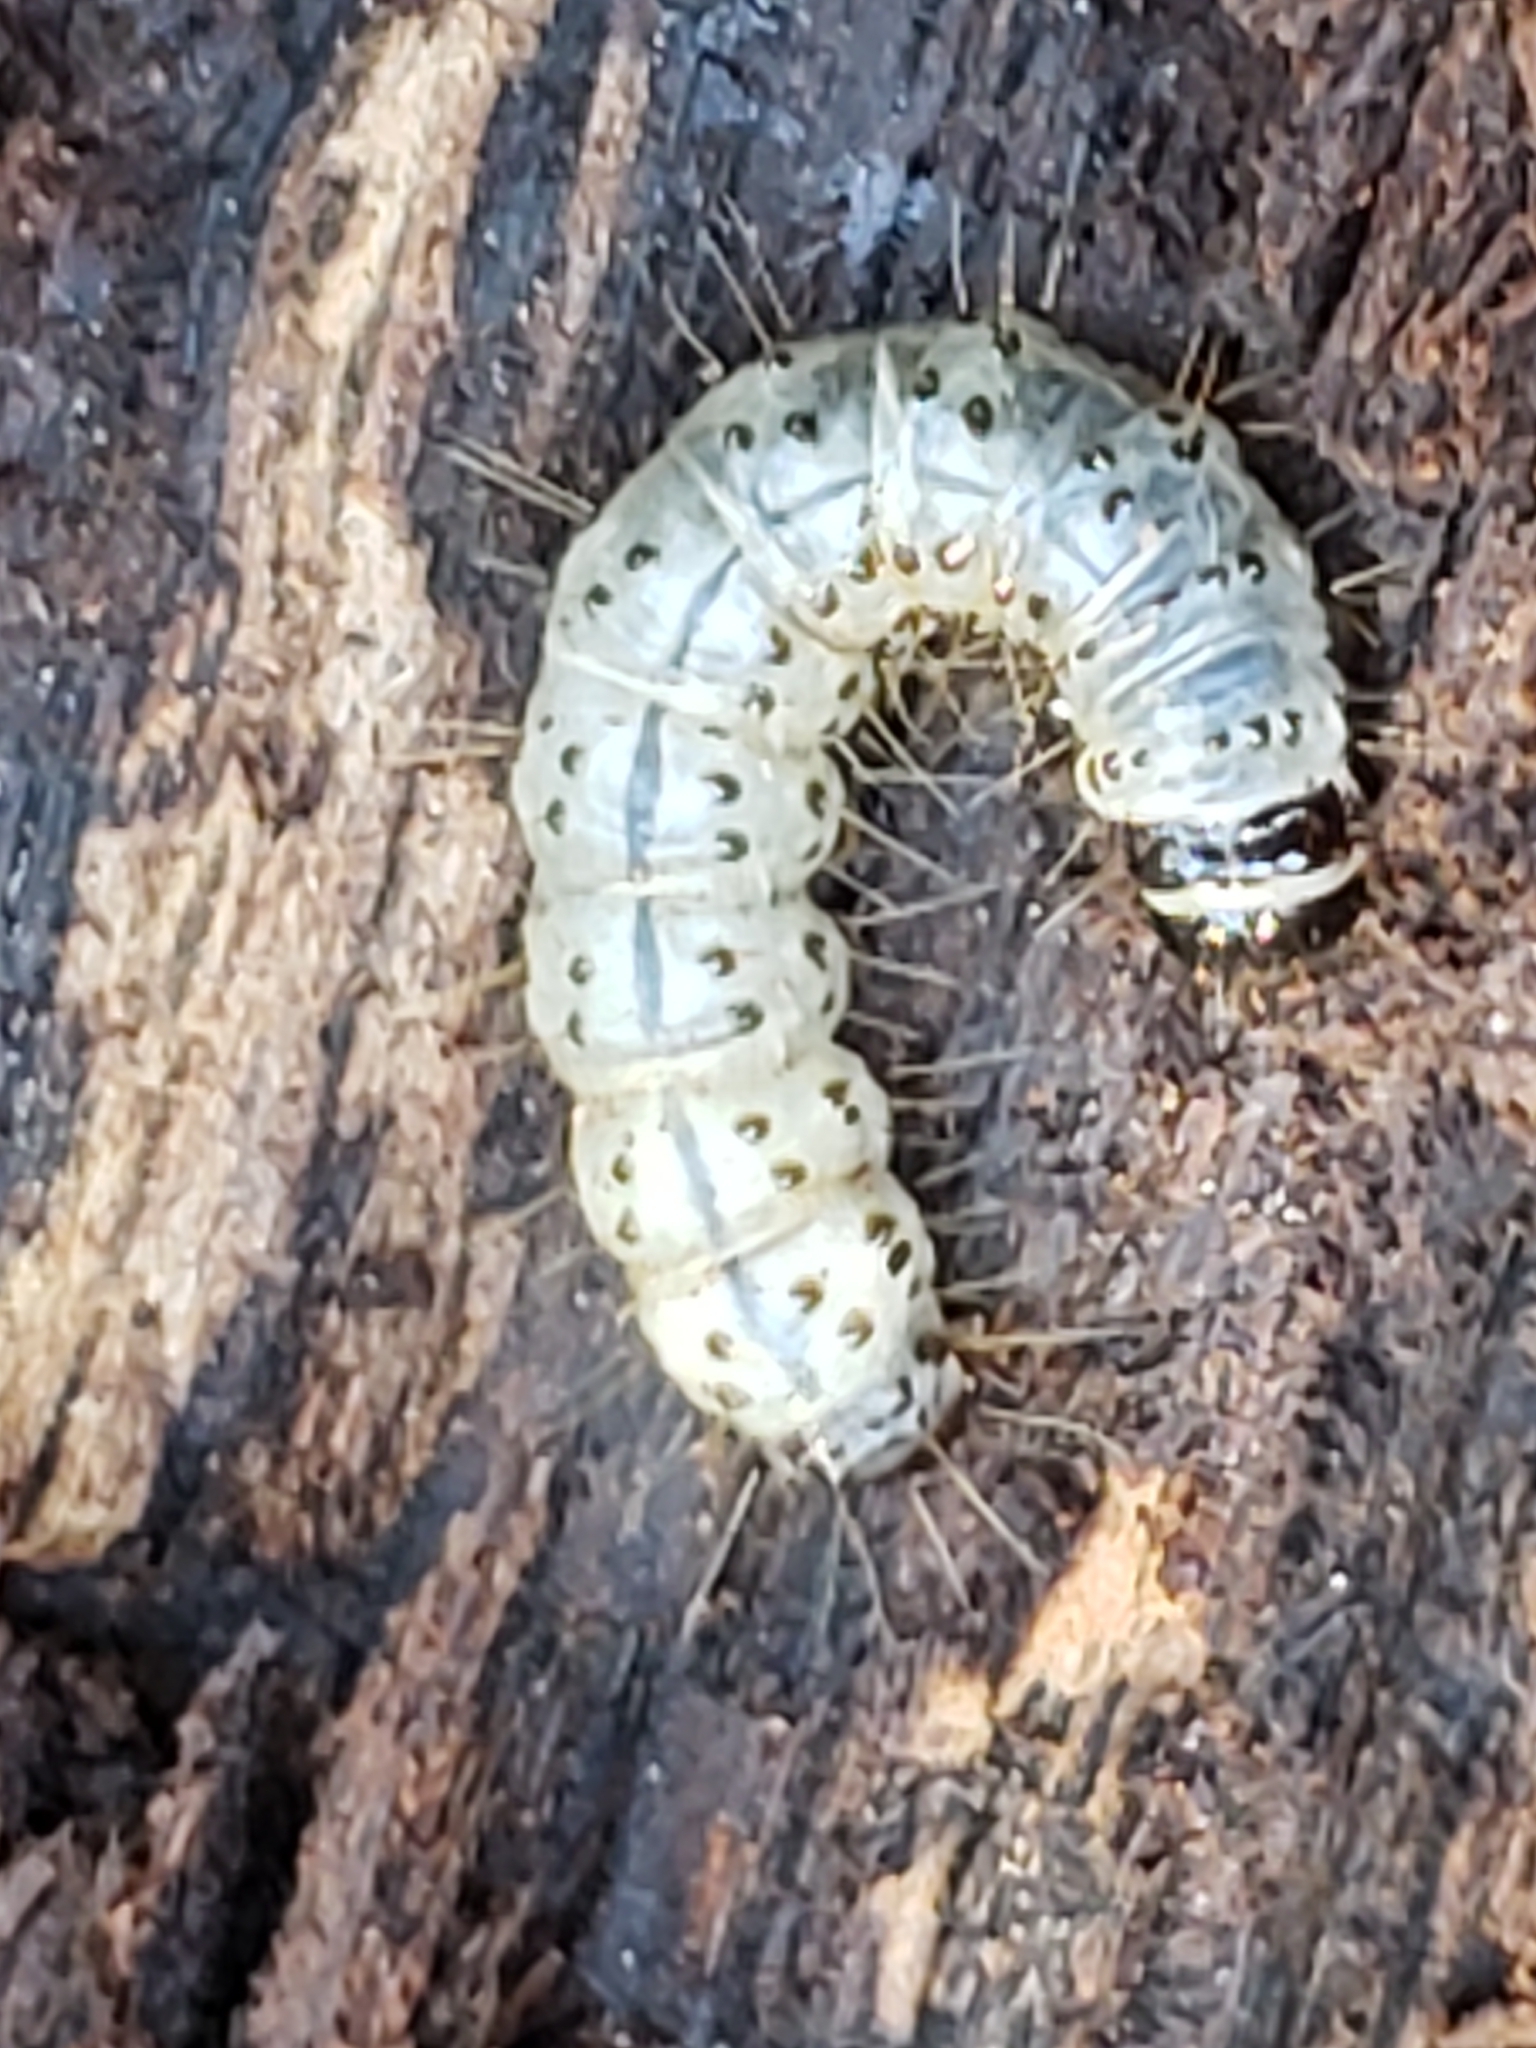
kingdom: Animalia
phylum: Arthropoda
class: Insecta
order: Lepidoptera
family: Erebidae
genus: Scolecocampa
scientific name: Scolecocampa liburna
